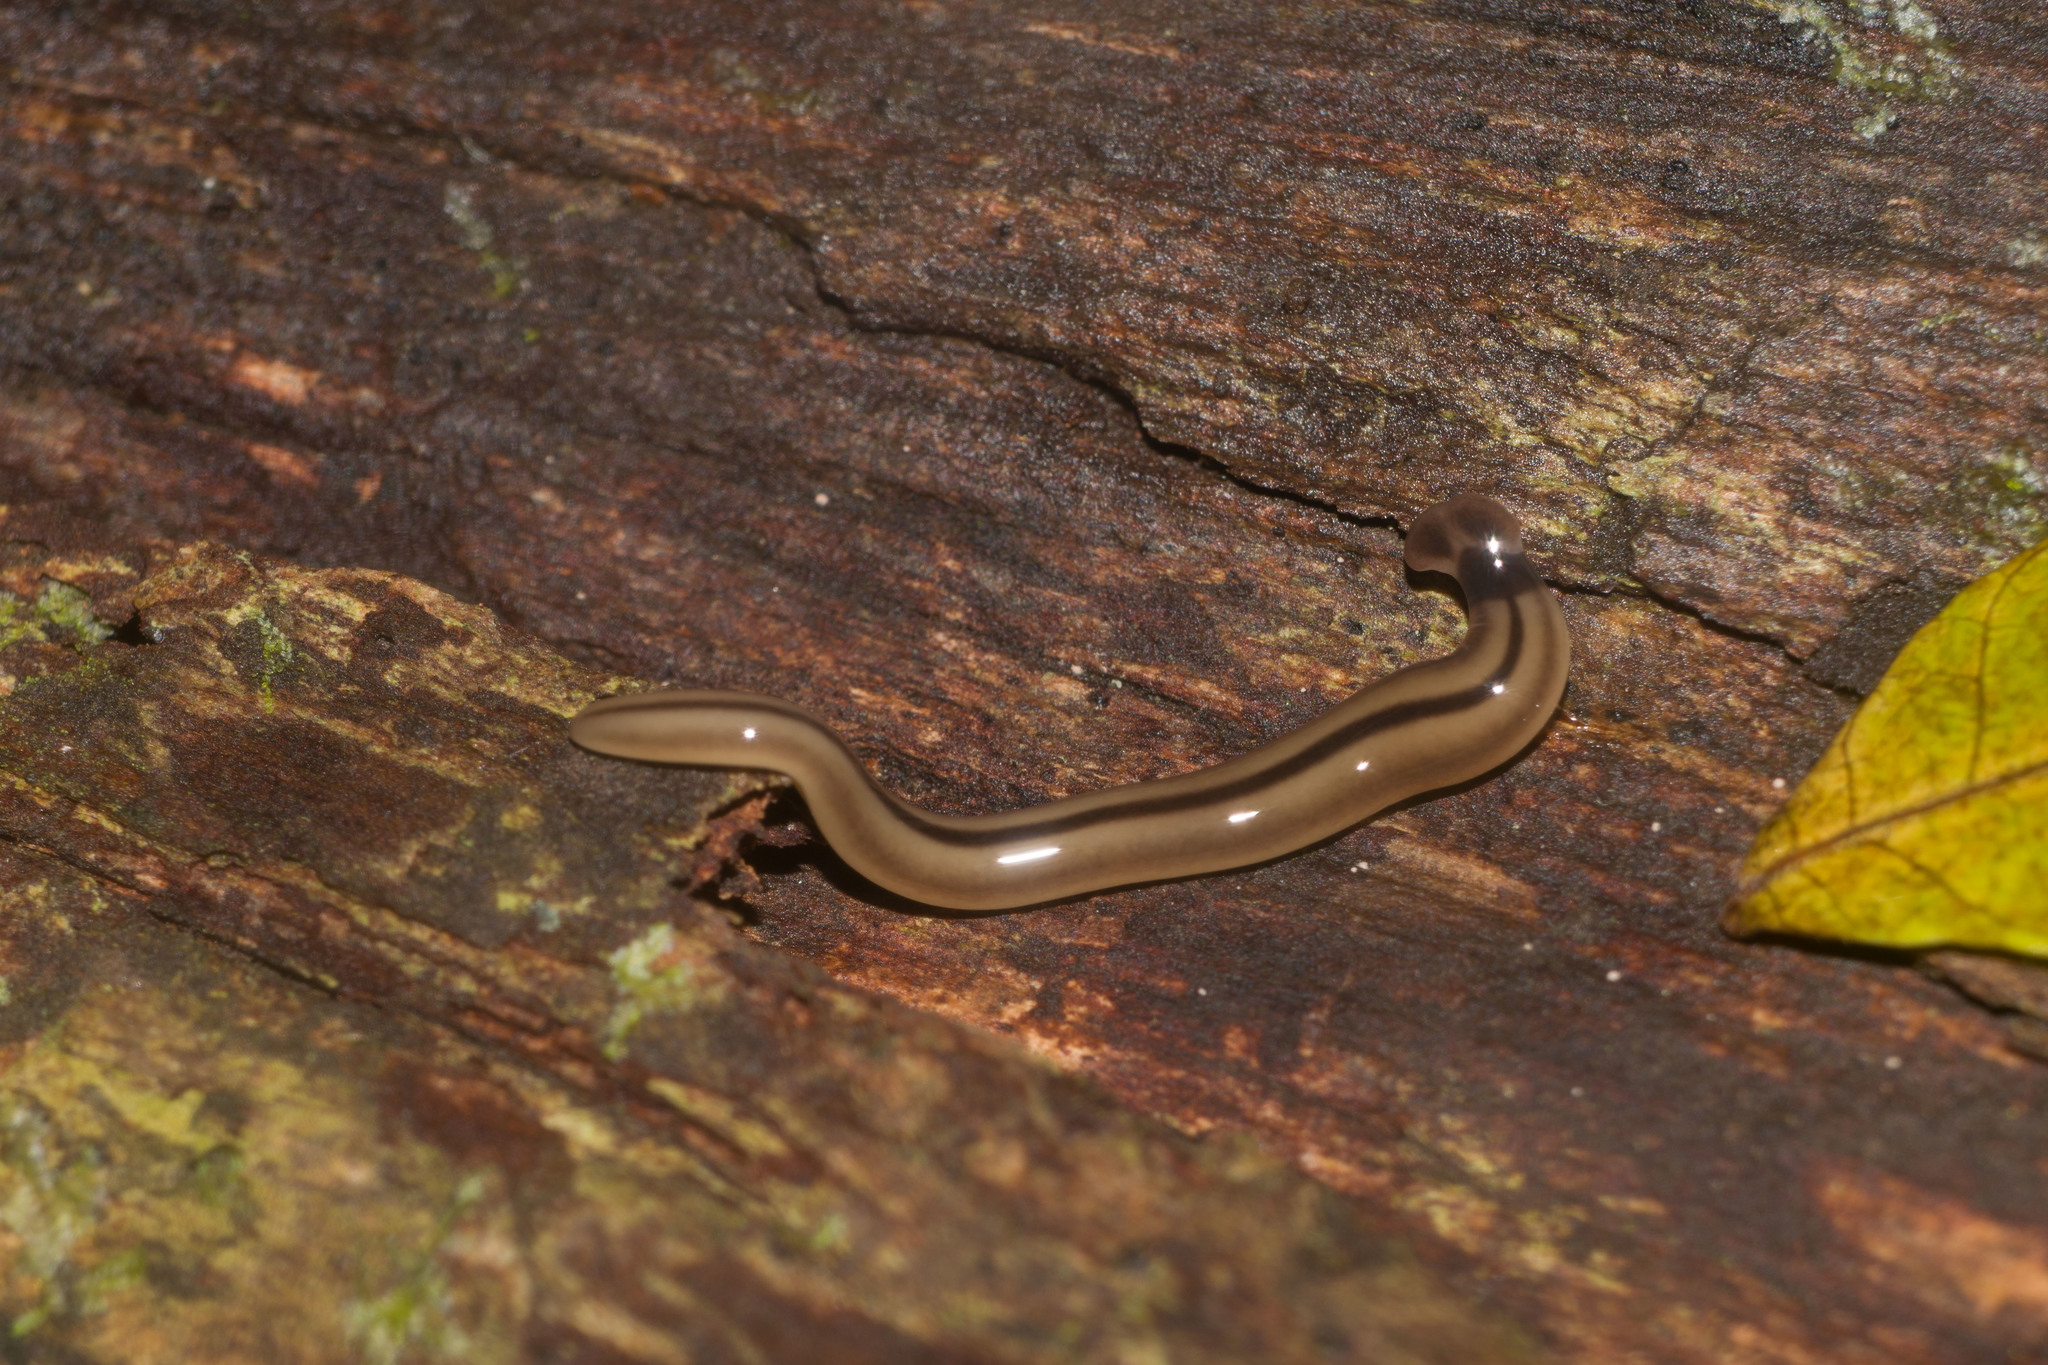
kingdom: Animalia
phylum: Platyhelminthes
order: Tricladida
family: Geoplanidae
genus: Bipalium
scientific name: Bipalium vagum
